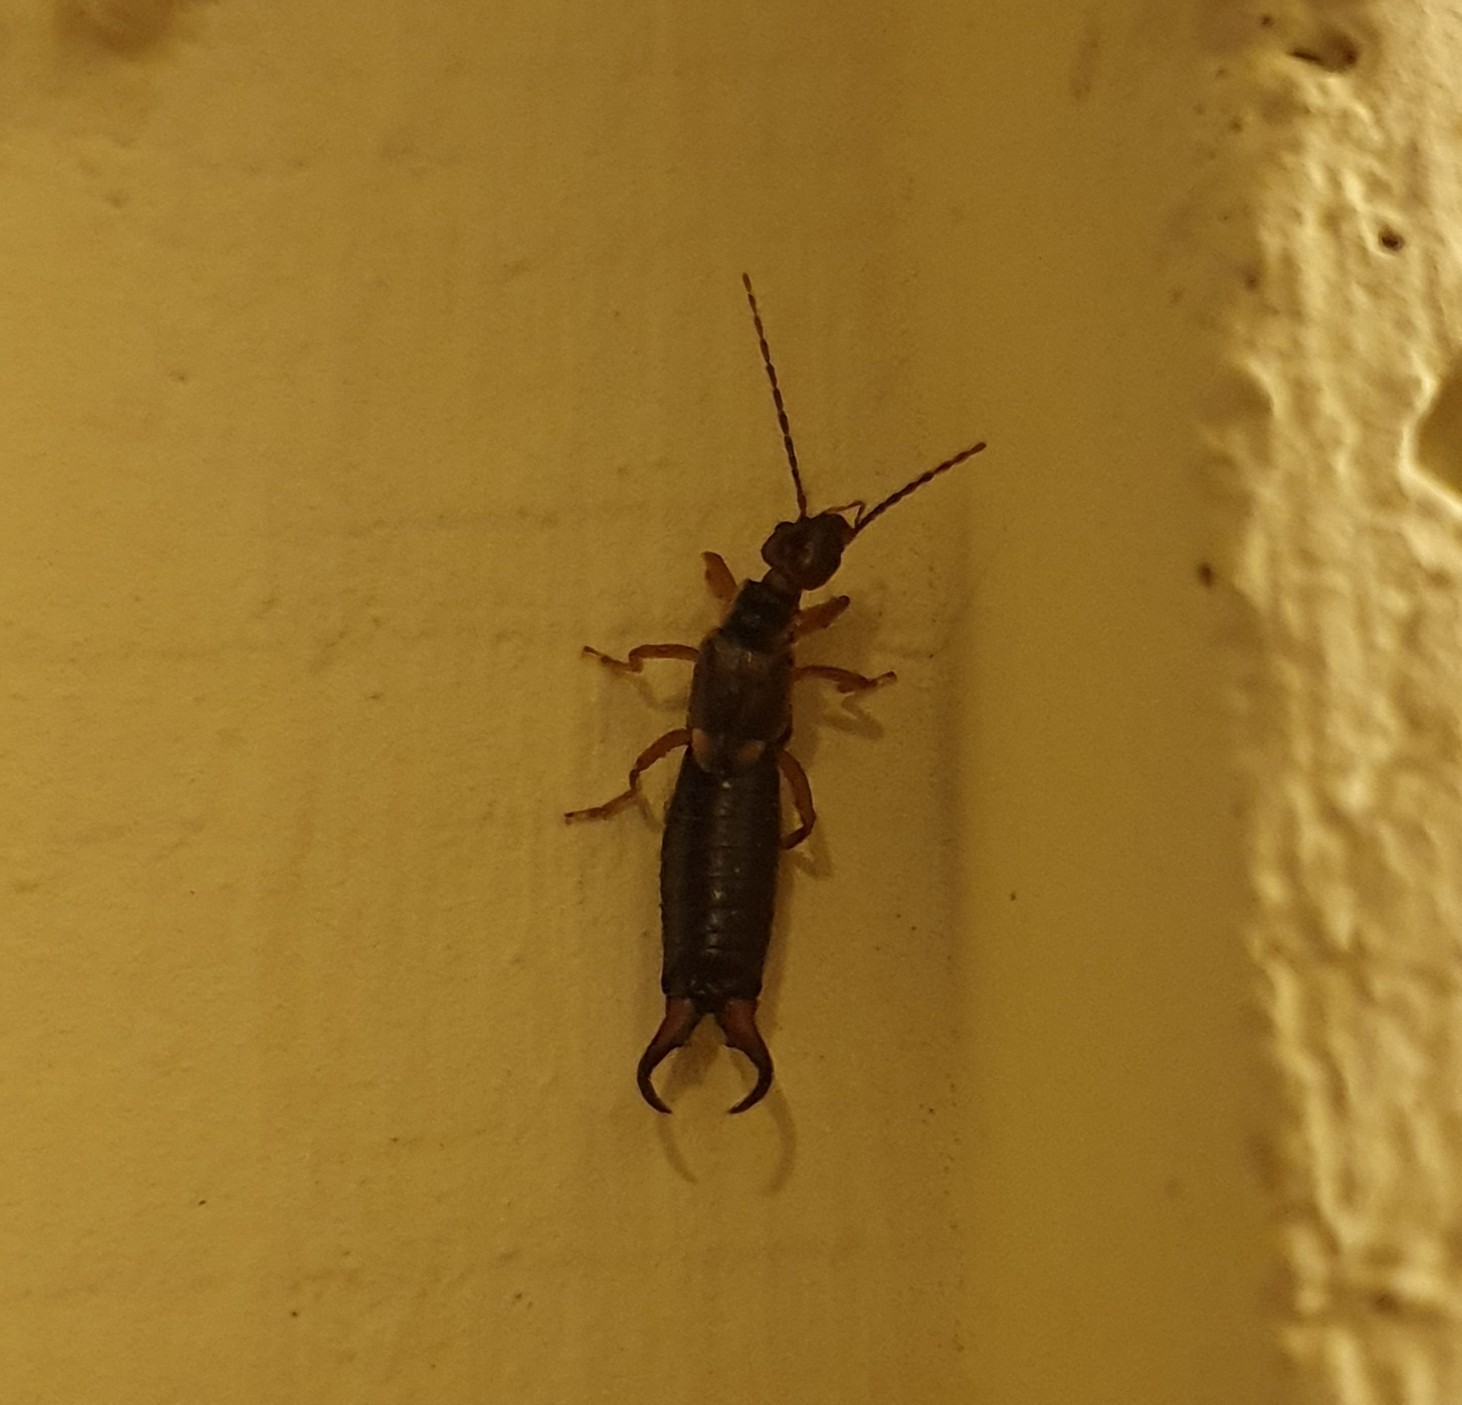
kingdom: Animalia
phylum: Arthropoda
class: Insecta
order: Dermaptera
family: Forficulidae
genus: Forficula
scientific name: Forficula
